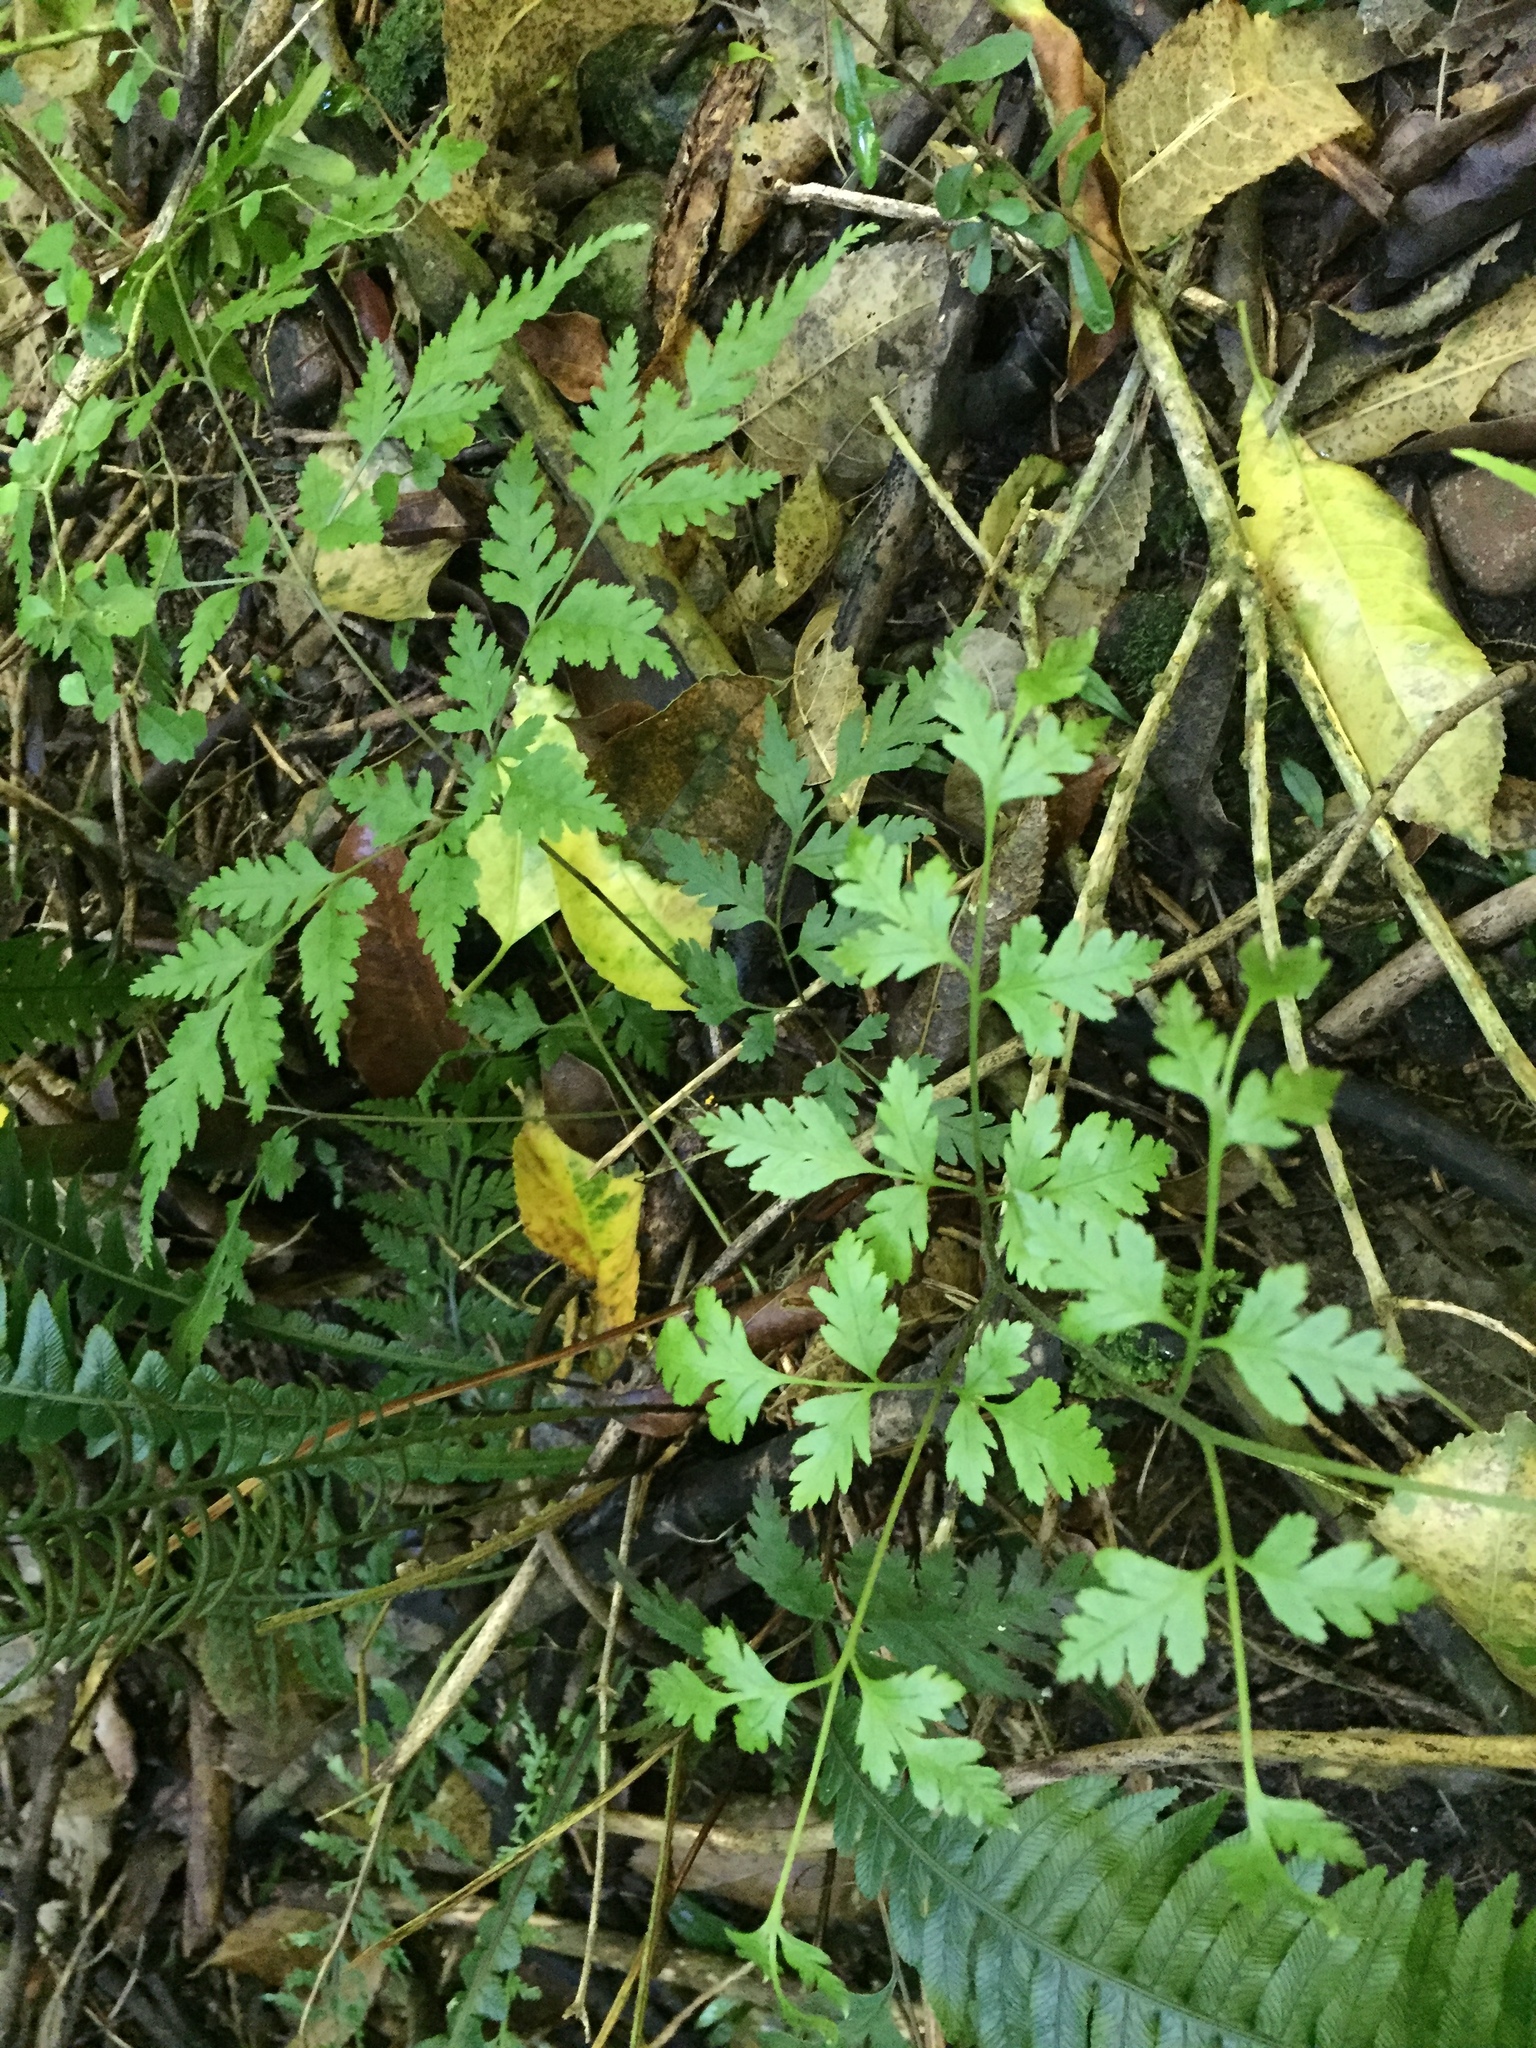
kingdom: Plantae
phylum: Tracheophyta
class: Polypodiopsida
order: Polypodiales
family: Pteridaceae
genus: Pteris
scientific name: Pteris macilenta
